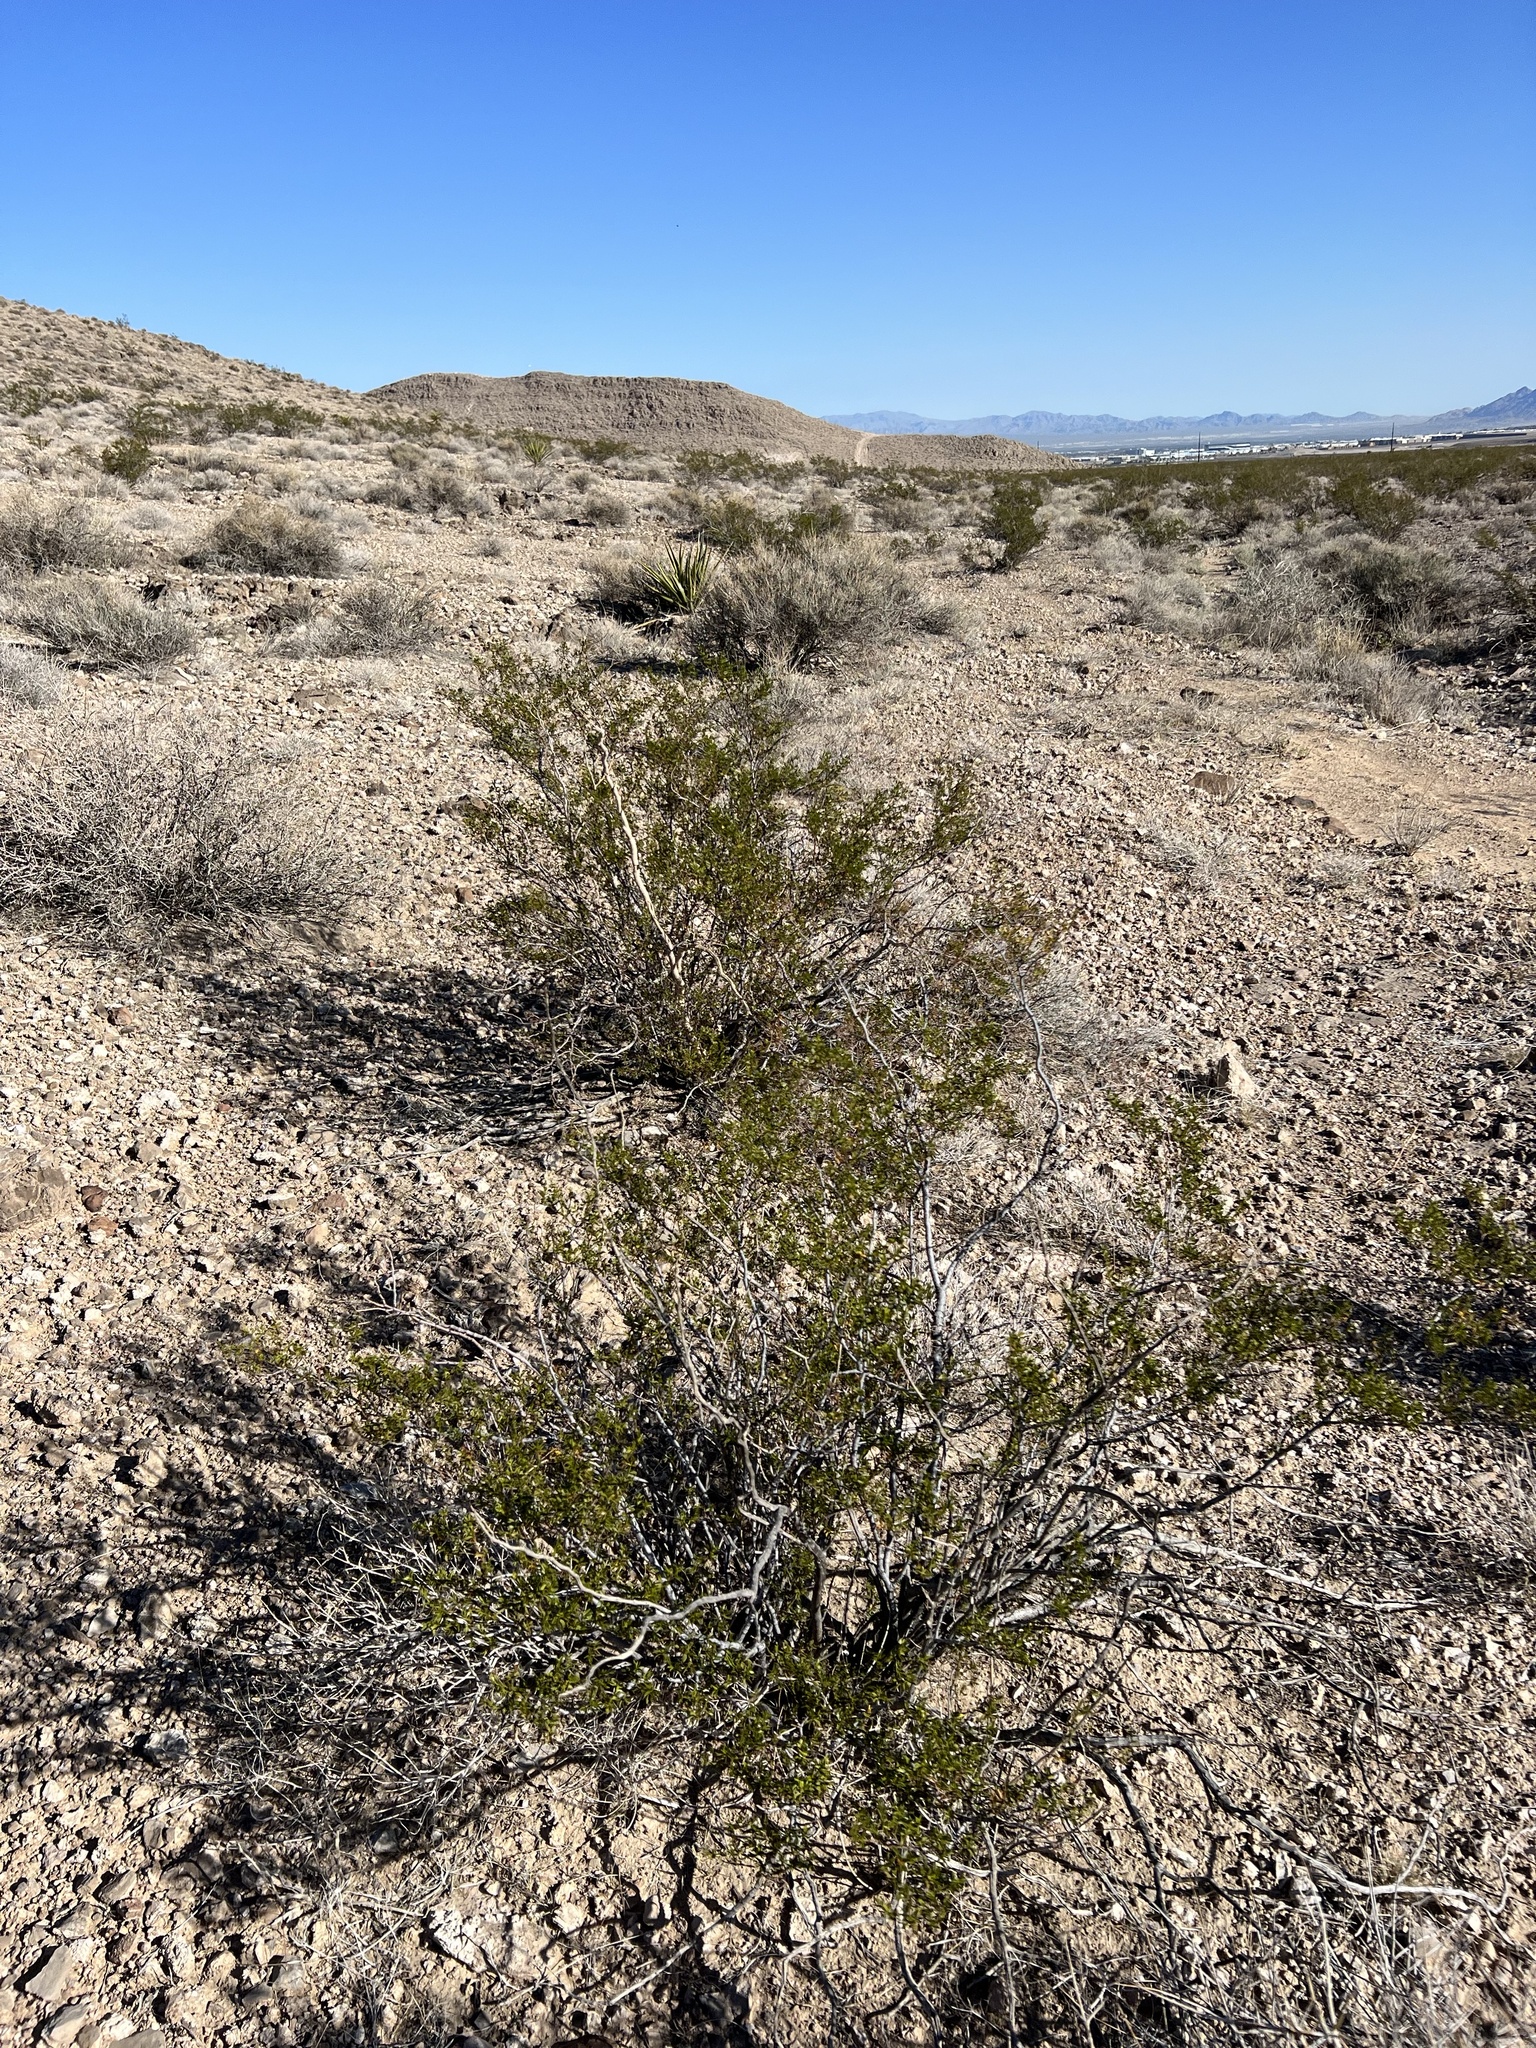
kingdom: Plantae
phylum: Tracheophyta
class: Magnoliopsida
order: Zygophyllales
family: Zygophyllaceae
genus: Larrea
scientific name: Larrea tridentata
